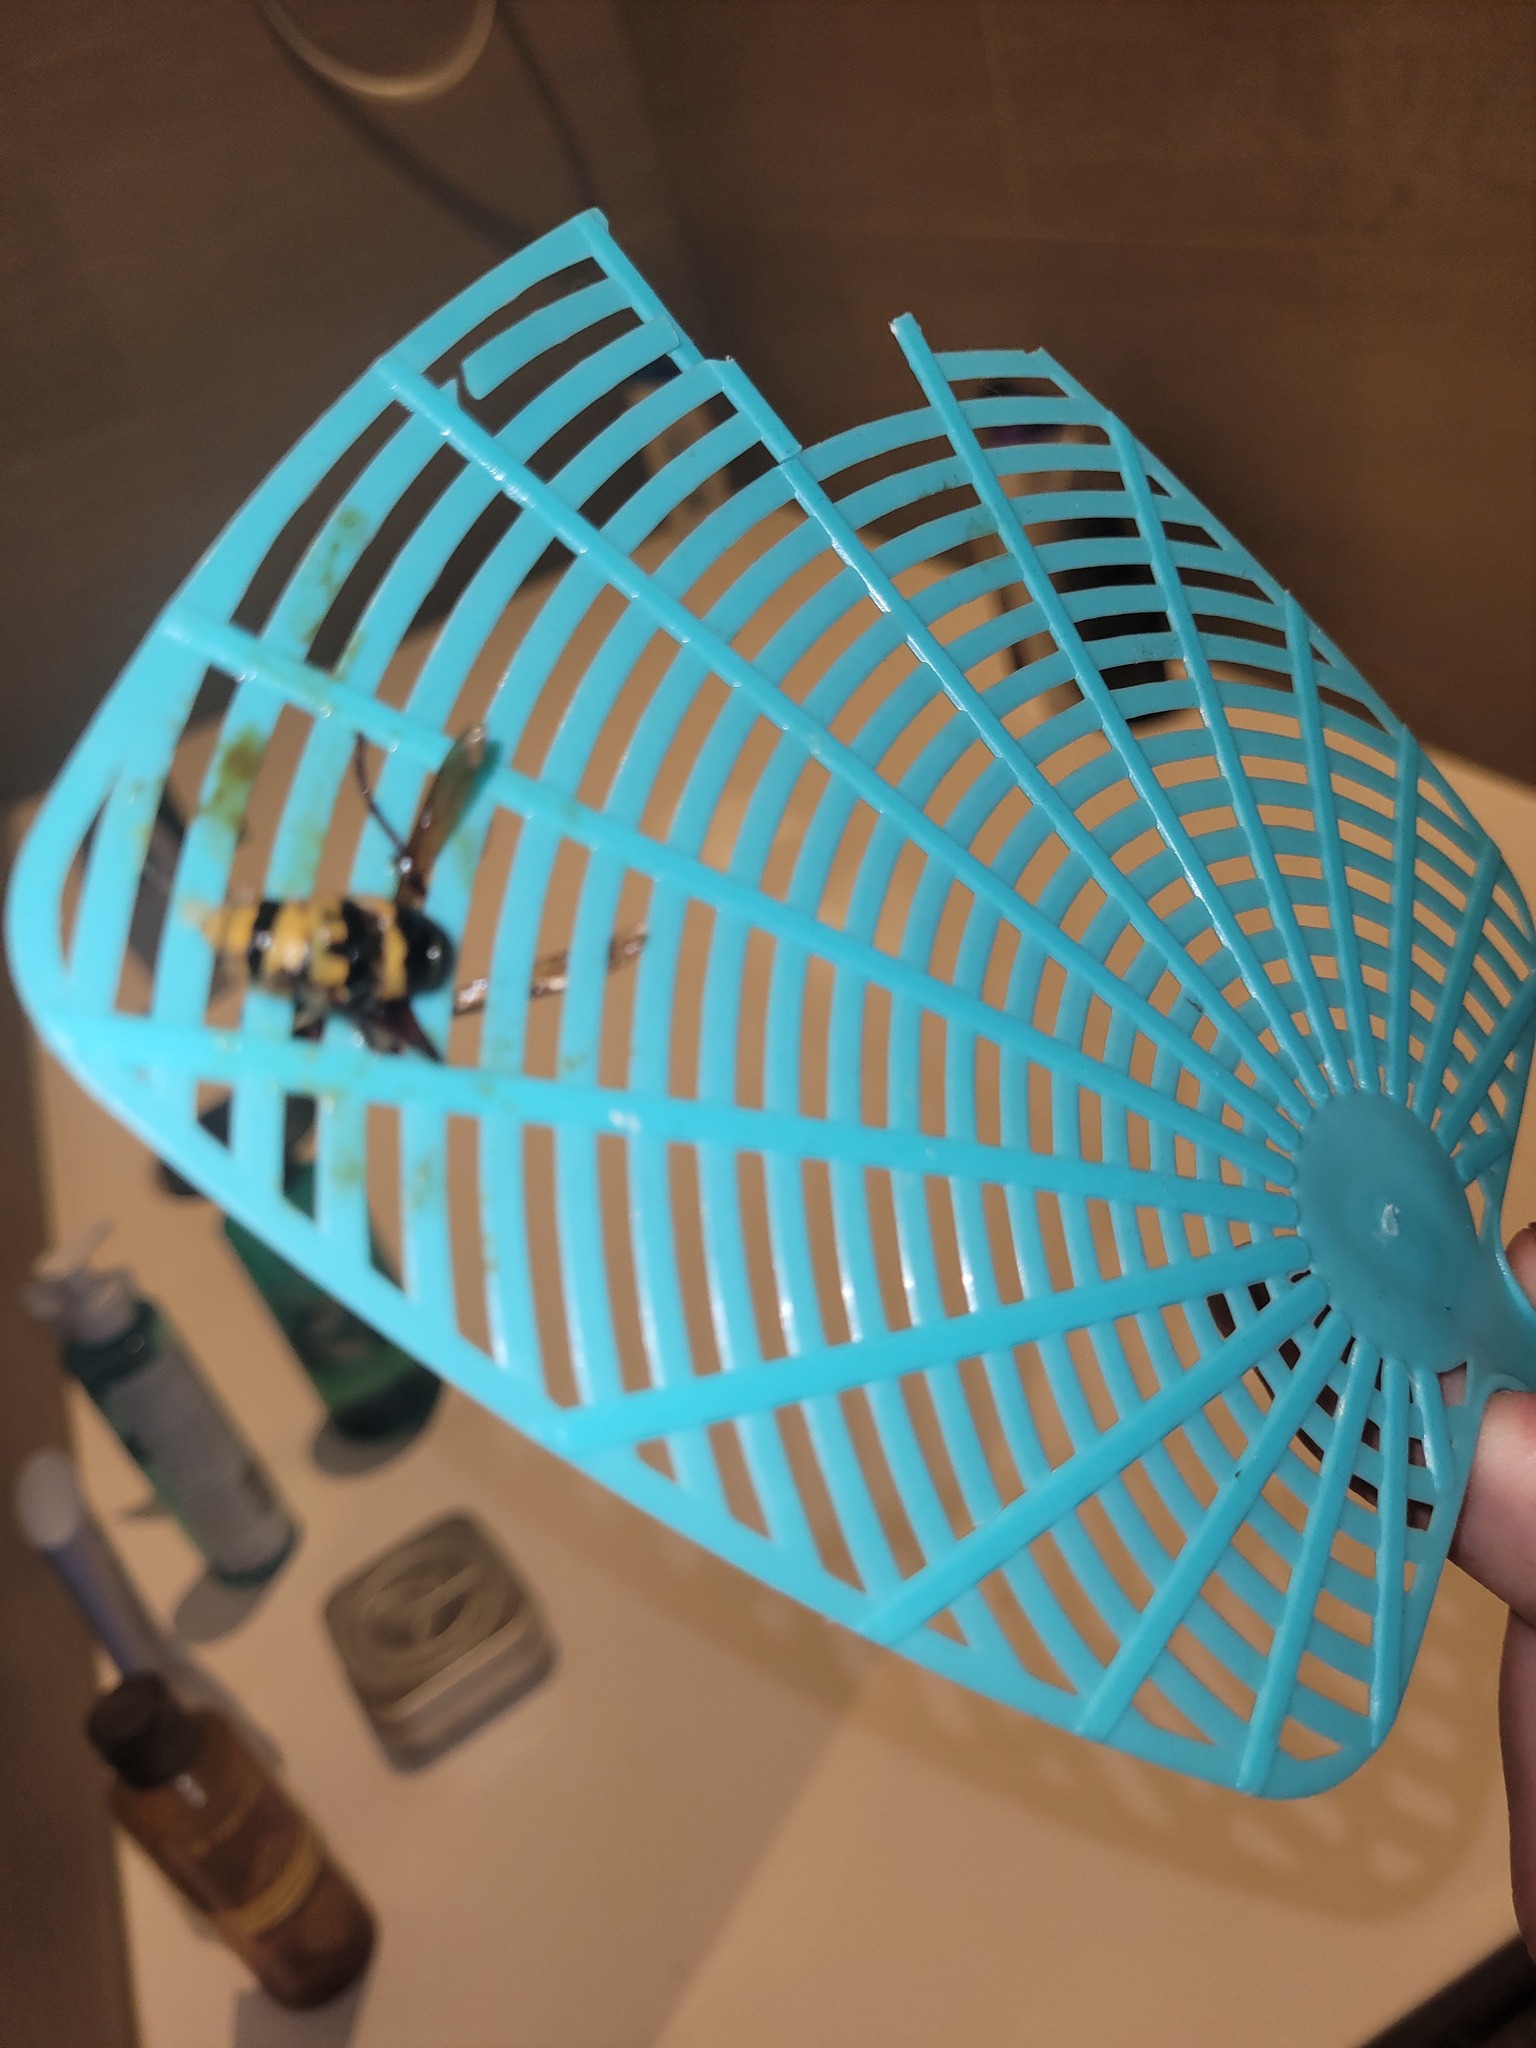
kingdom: Animalia
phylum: Arthropoda
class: Insecta
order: Hymenoptera
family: Vespidae
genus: Vespa
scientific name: Vespa crabro
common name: Hornet
